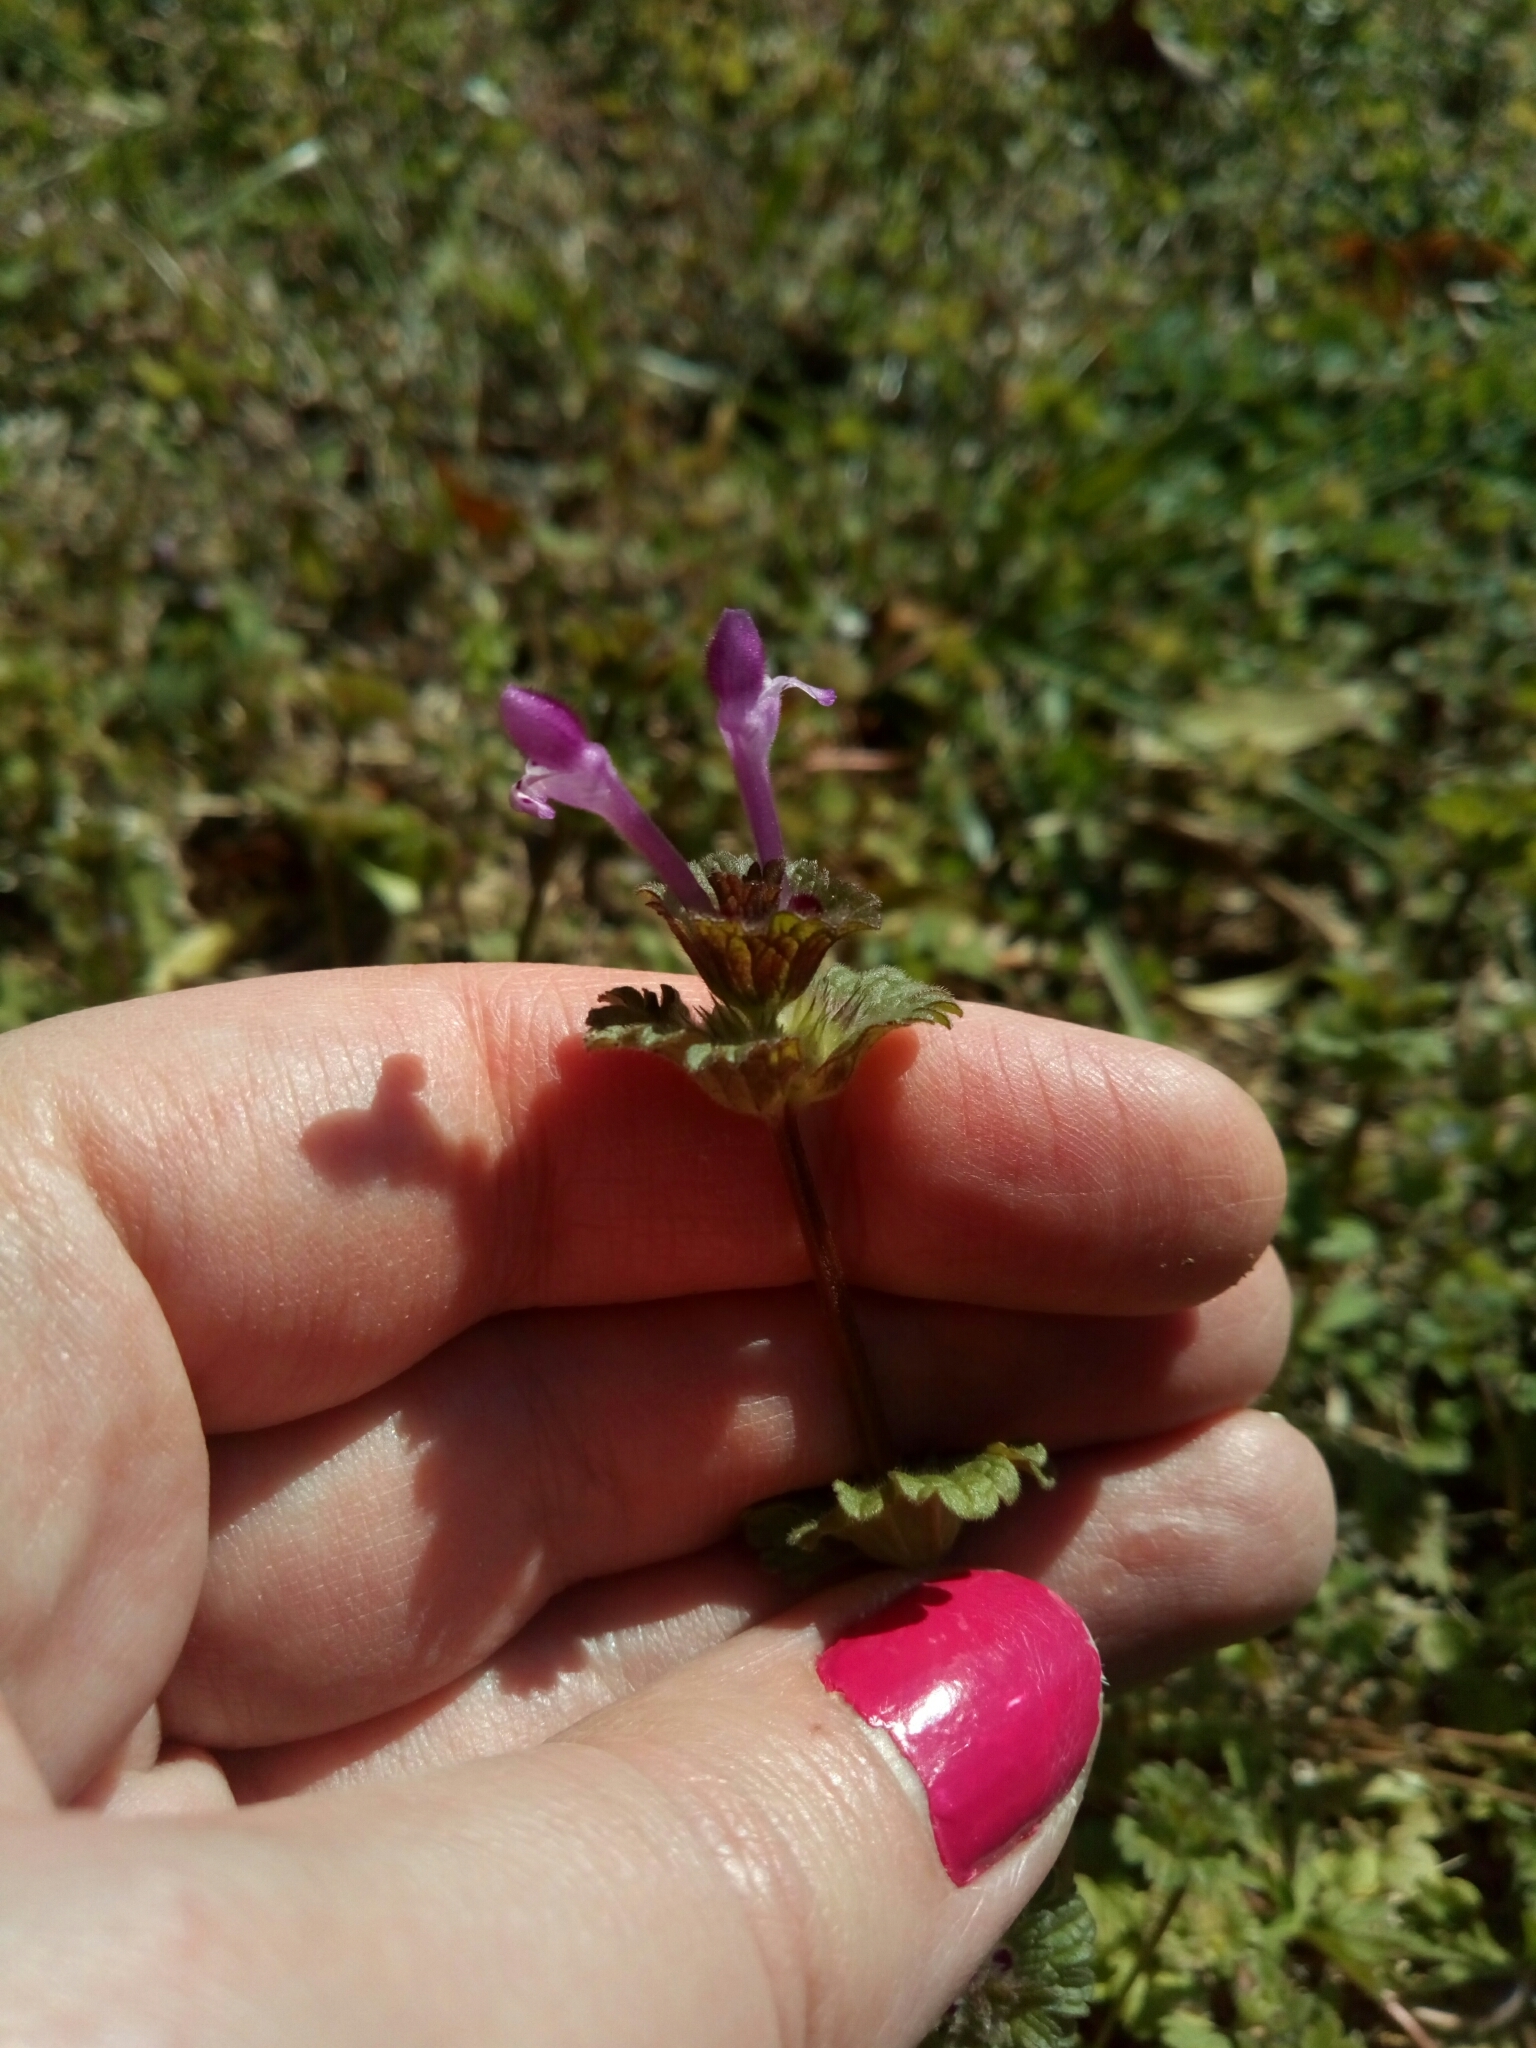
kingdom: Plantae
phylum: Tracheophyta
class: Magnoliopsida
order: Lamiales
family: Lamiaceae
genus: Lamium
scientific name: Lamium amplexicaule
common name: Henbit dead-nettle
